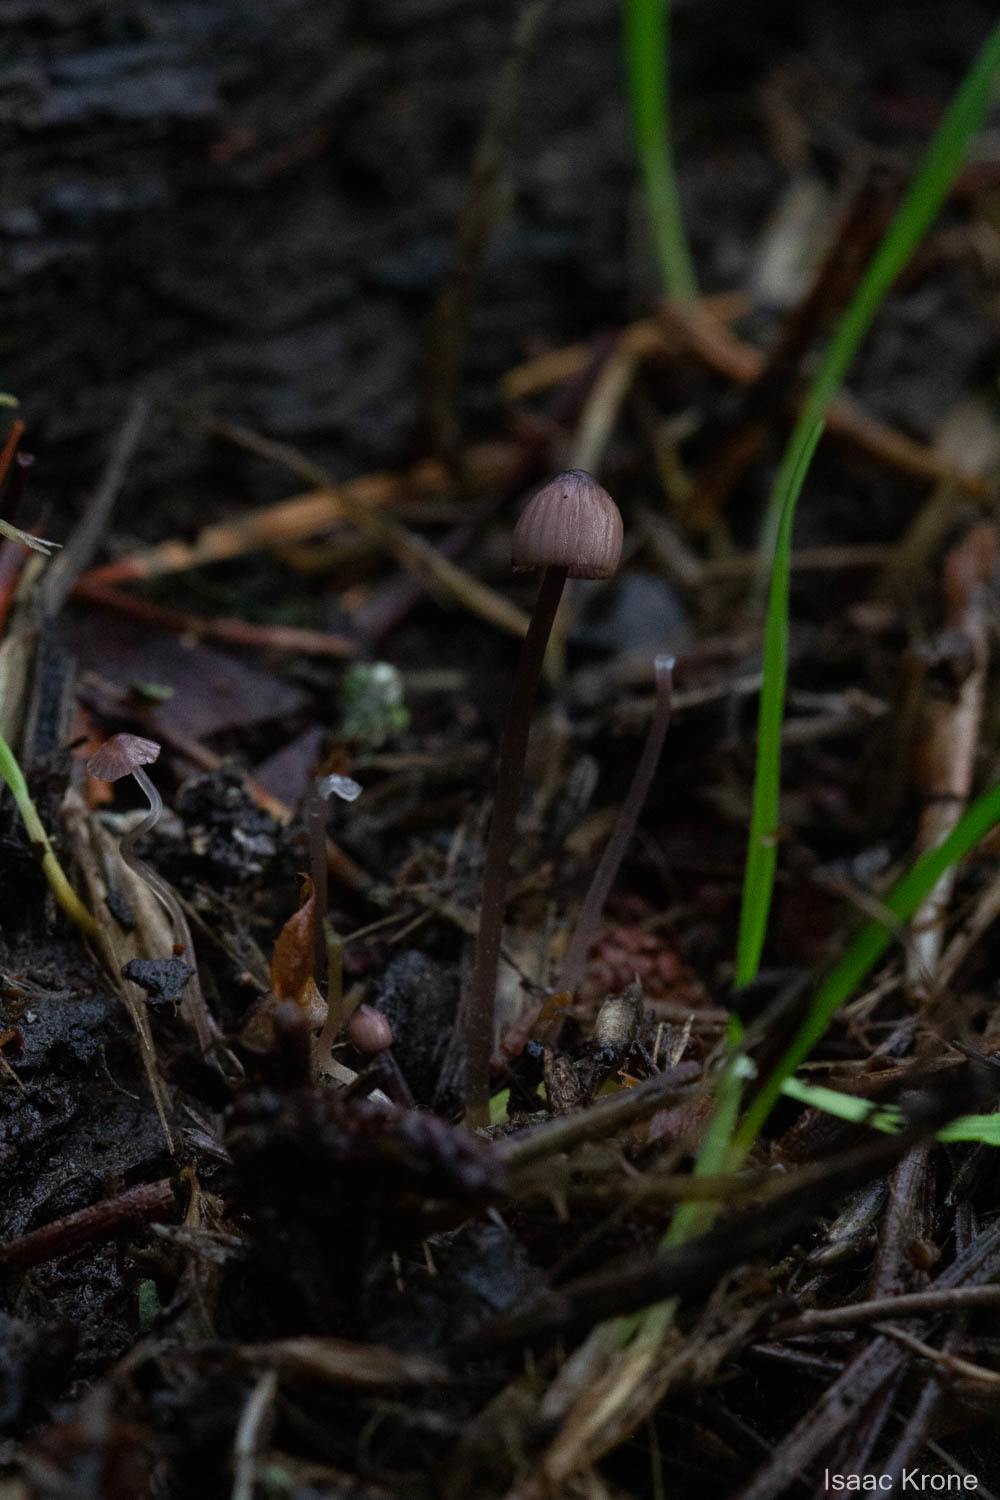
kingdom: Fungi
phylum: Basidiomycota
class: Agaricomycetes
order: Agaricales
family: Mycenaceae
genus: Mycena
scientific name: Mycena purpureofusca
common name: Purple edge bonnet
